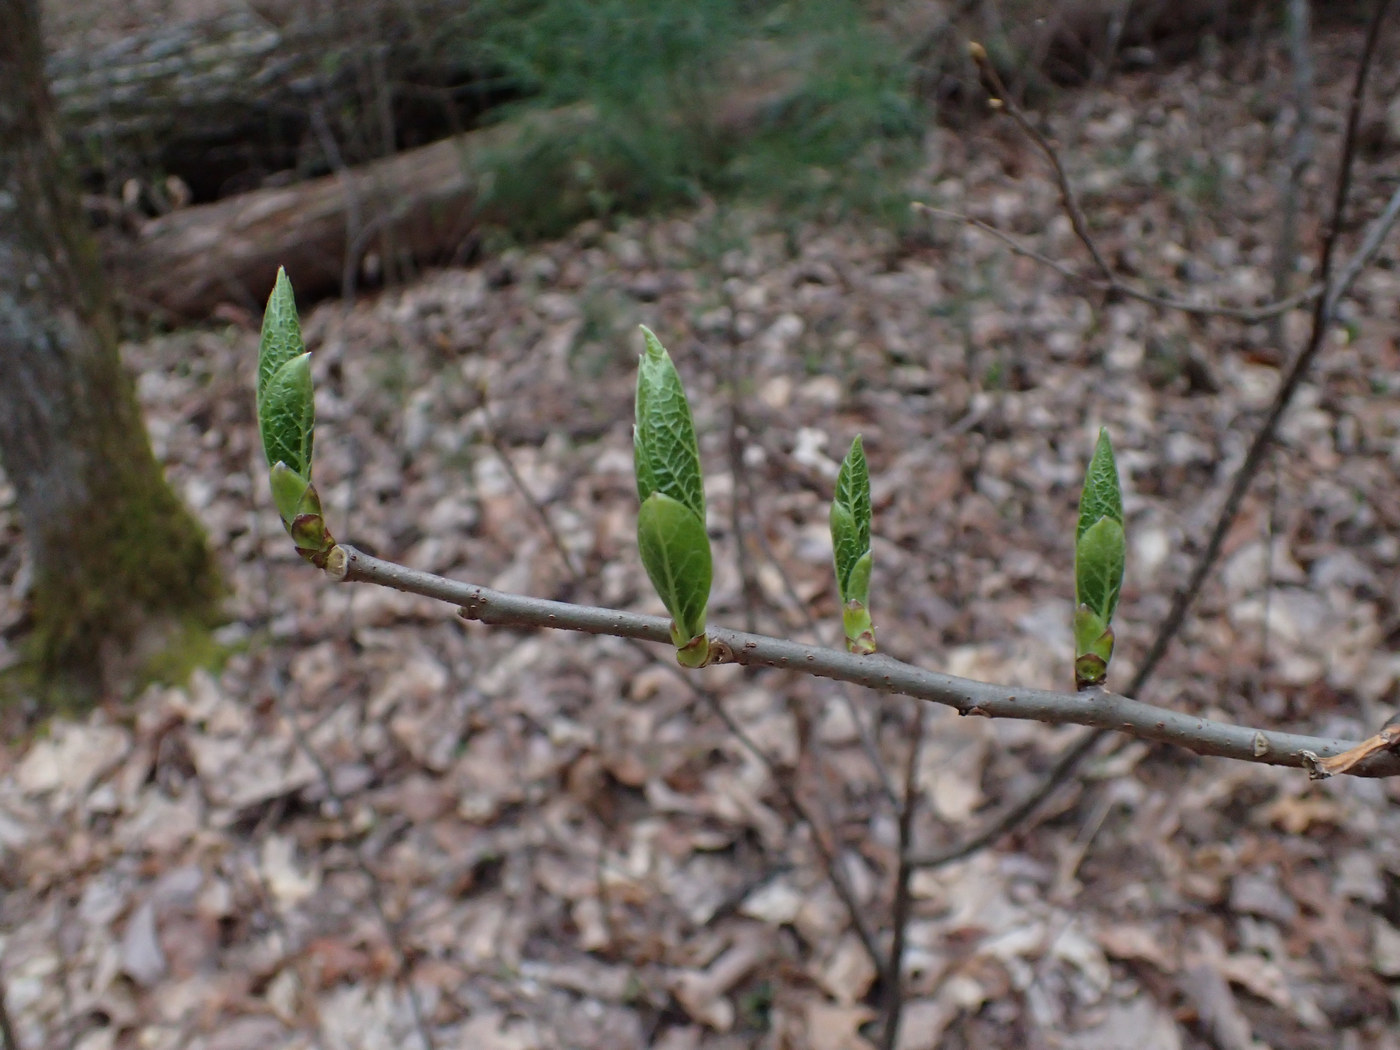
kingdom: Plantae
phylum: Tracheophyta
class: Magnoliopsida
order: Santalales
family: Cervantesiaceae
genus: Pyrularia
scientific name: Pyrularia pubera
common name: Oilnut
